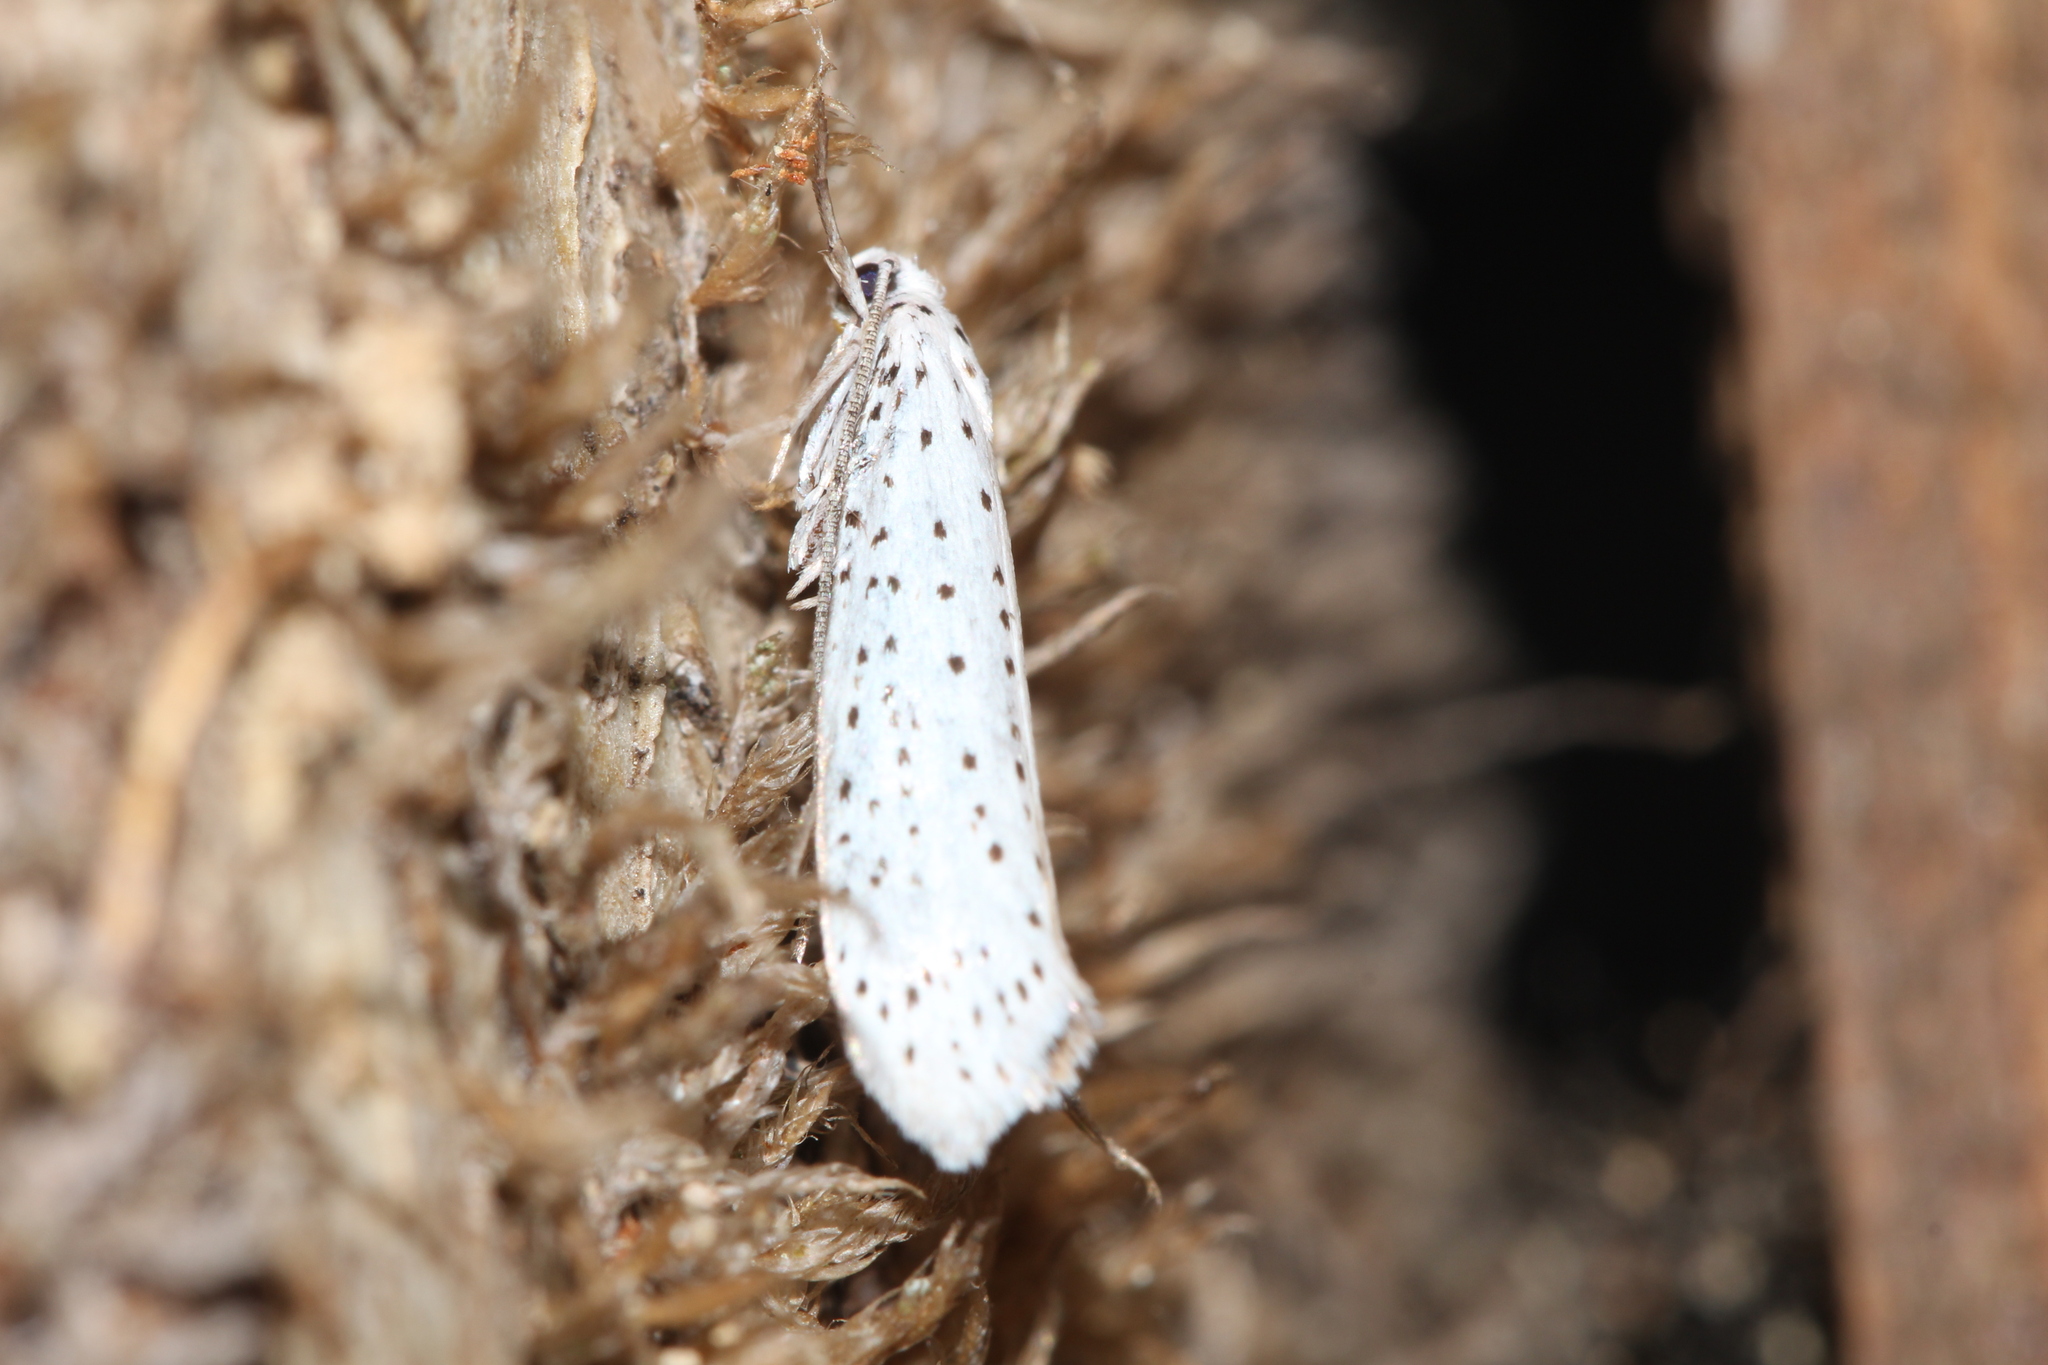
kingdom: Animalia
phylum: Arthropoda
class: Insecta
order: Lepidoptera
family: Yponomeutidae
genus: Yponomeuta
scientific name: Yponomeuta evonymella
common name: Bird-cherry ermine
